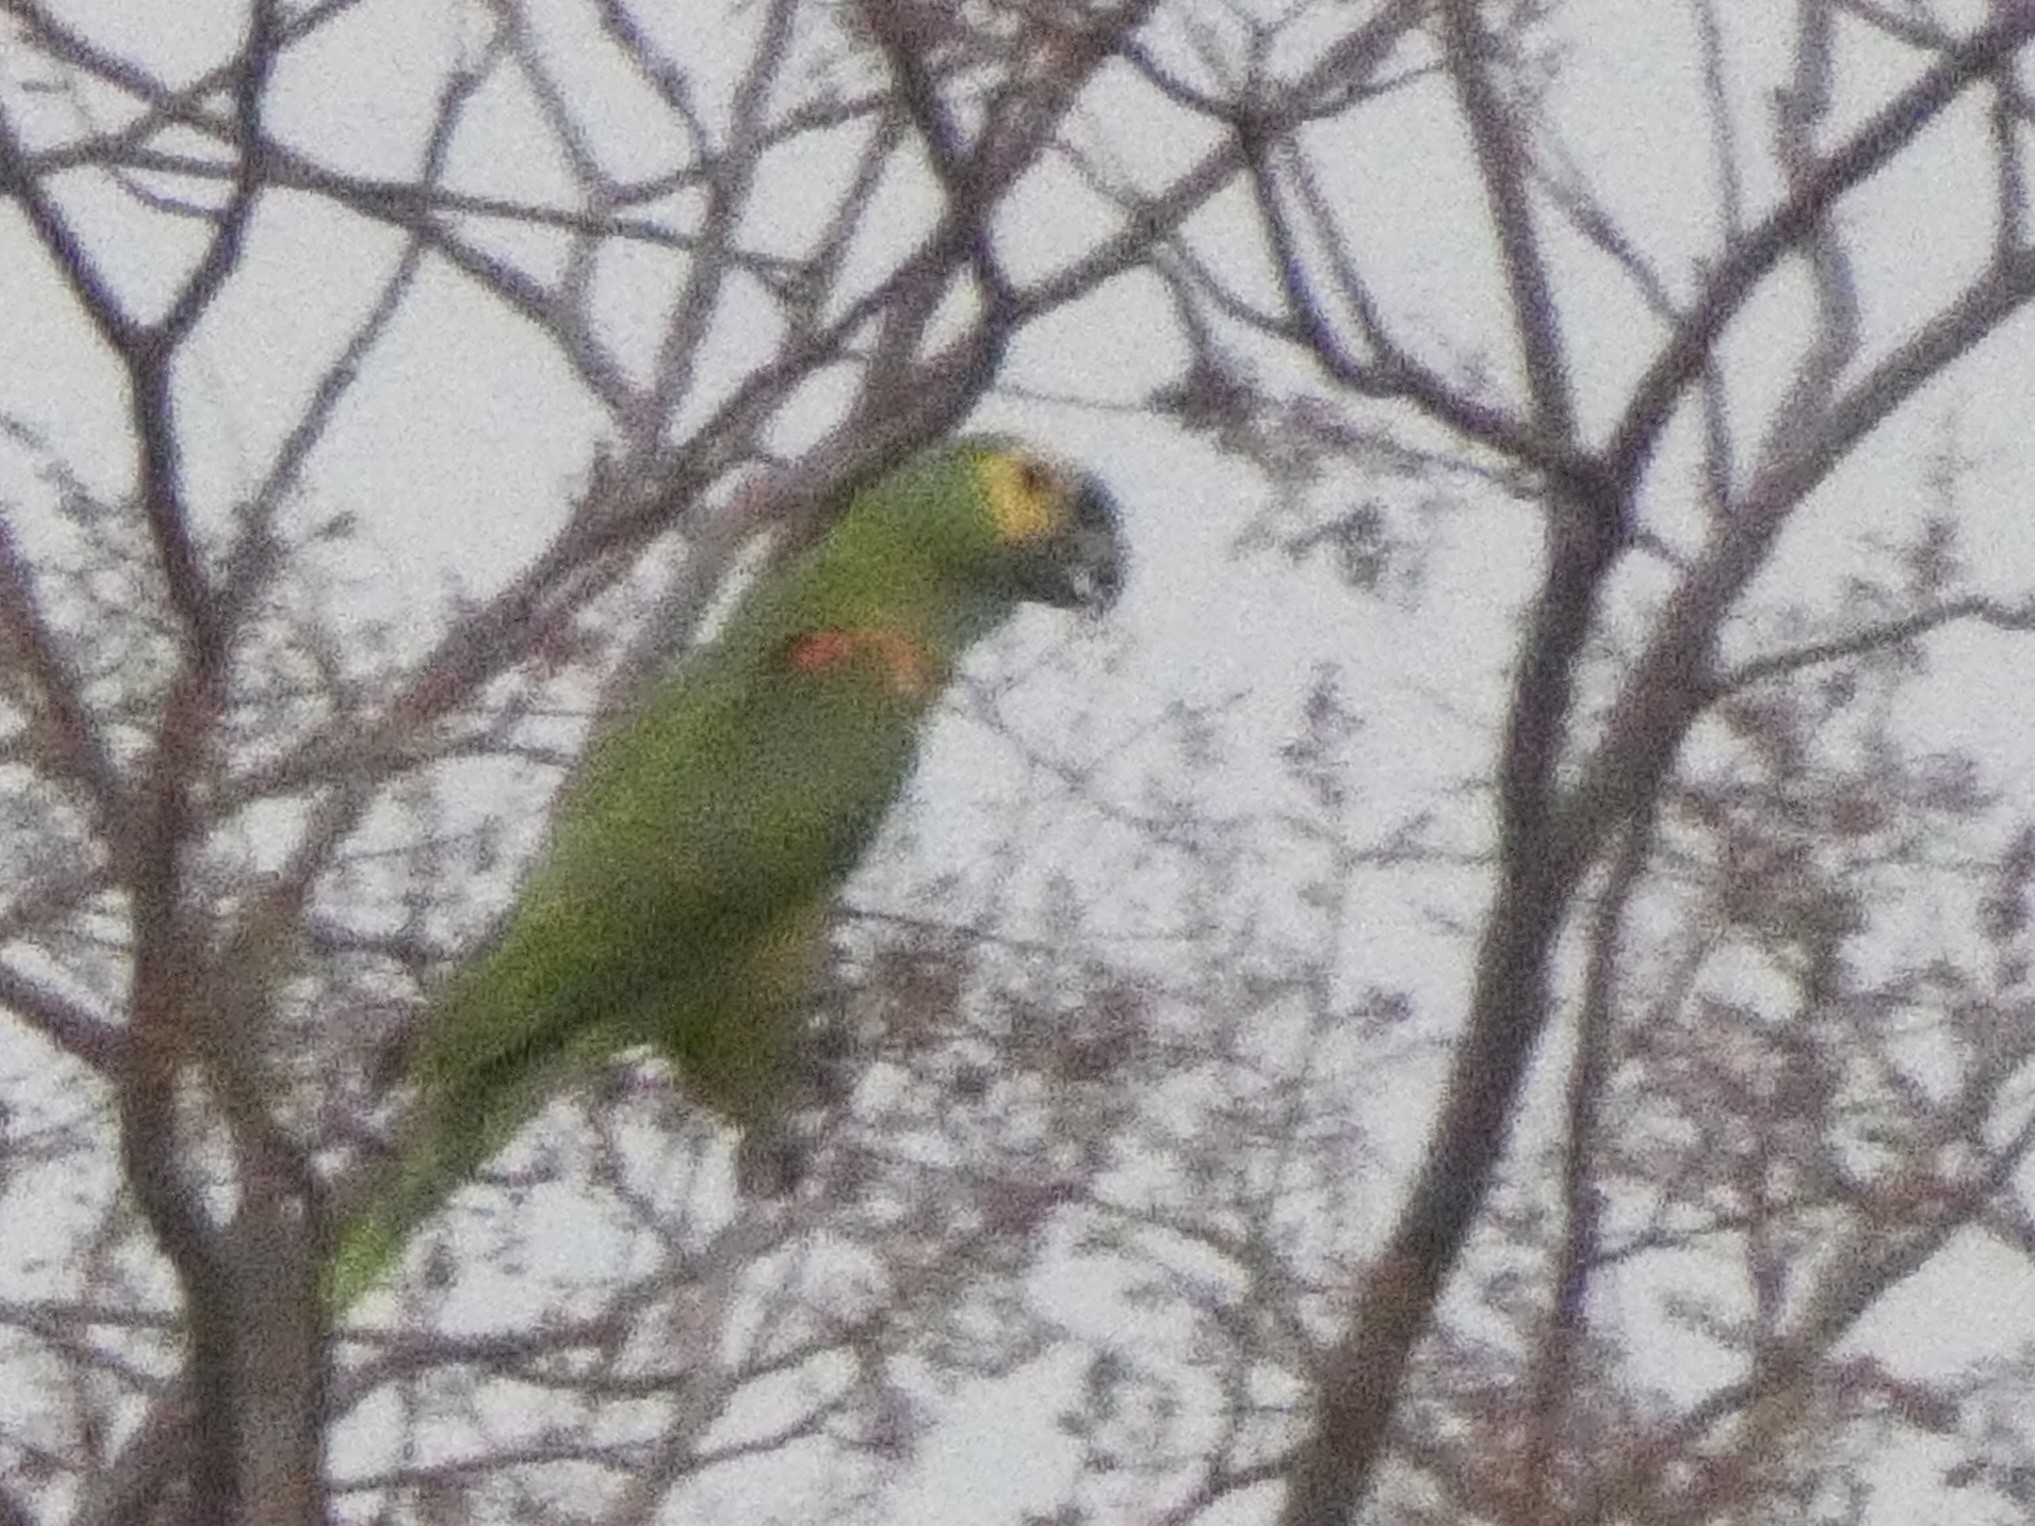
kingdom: Animalia
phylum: Chordata
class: Aves
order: Psittaciformes
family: Psittacidae
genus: Amazona
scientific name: Amazona aestiva
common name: Turquoise-fronted amazon
